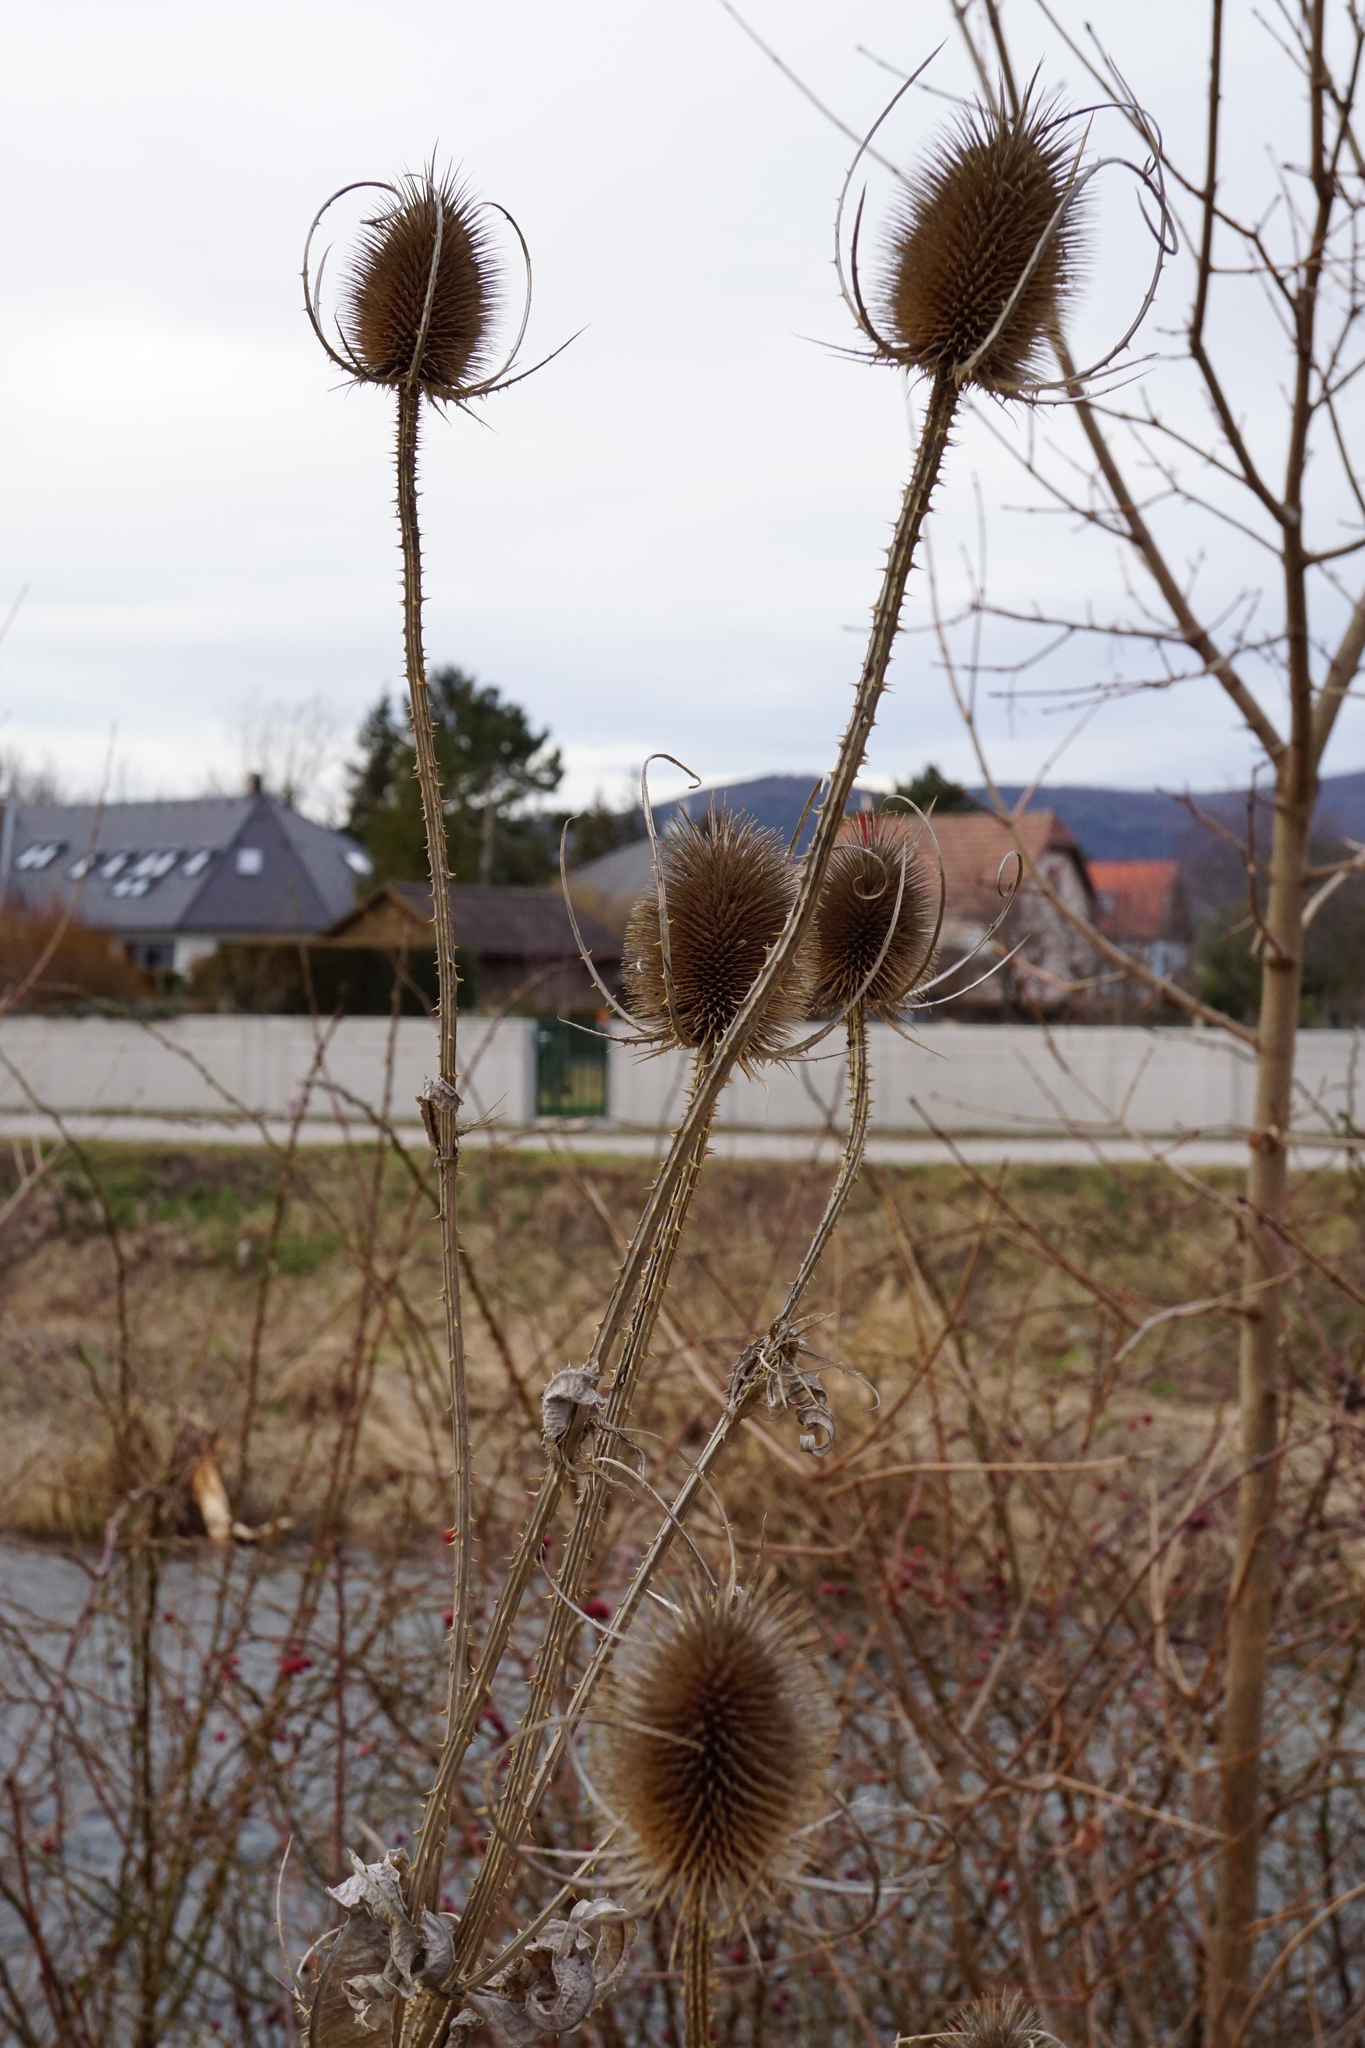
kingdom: Plantae
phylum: Tracheophyta
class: Magnoliopsida
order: Dipsacales
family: Caprifoliaceae
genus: Dipsacus
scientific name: Dipsacus fullonum
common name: Teasel
